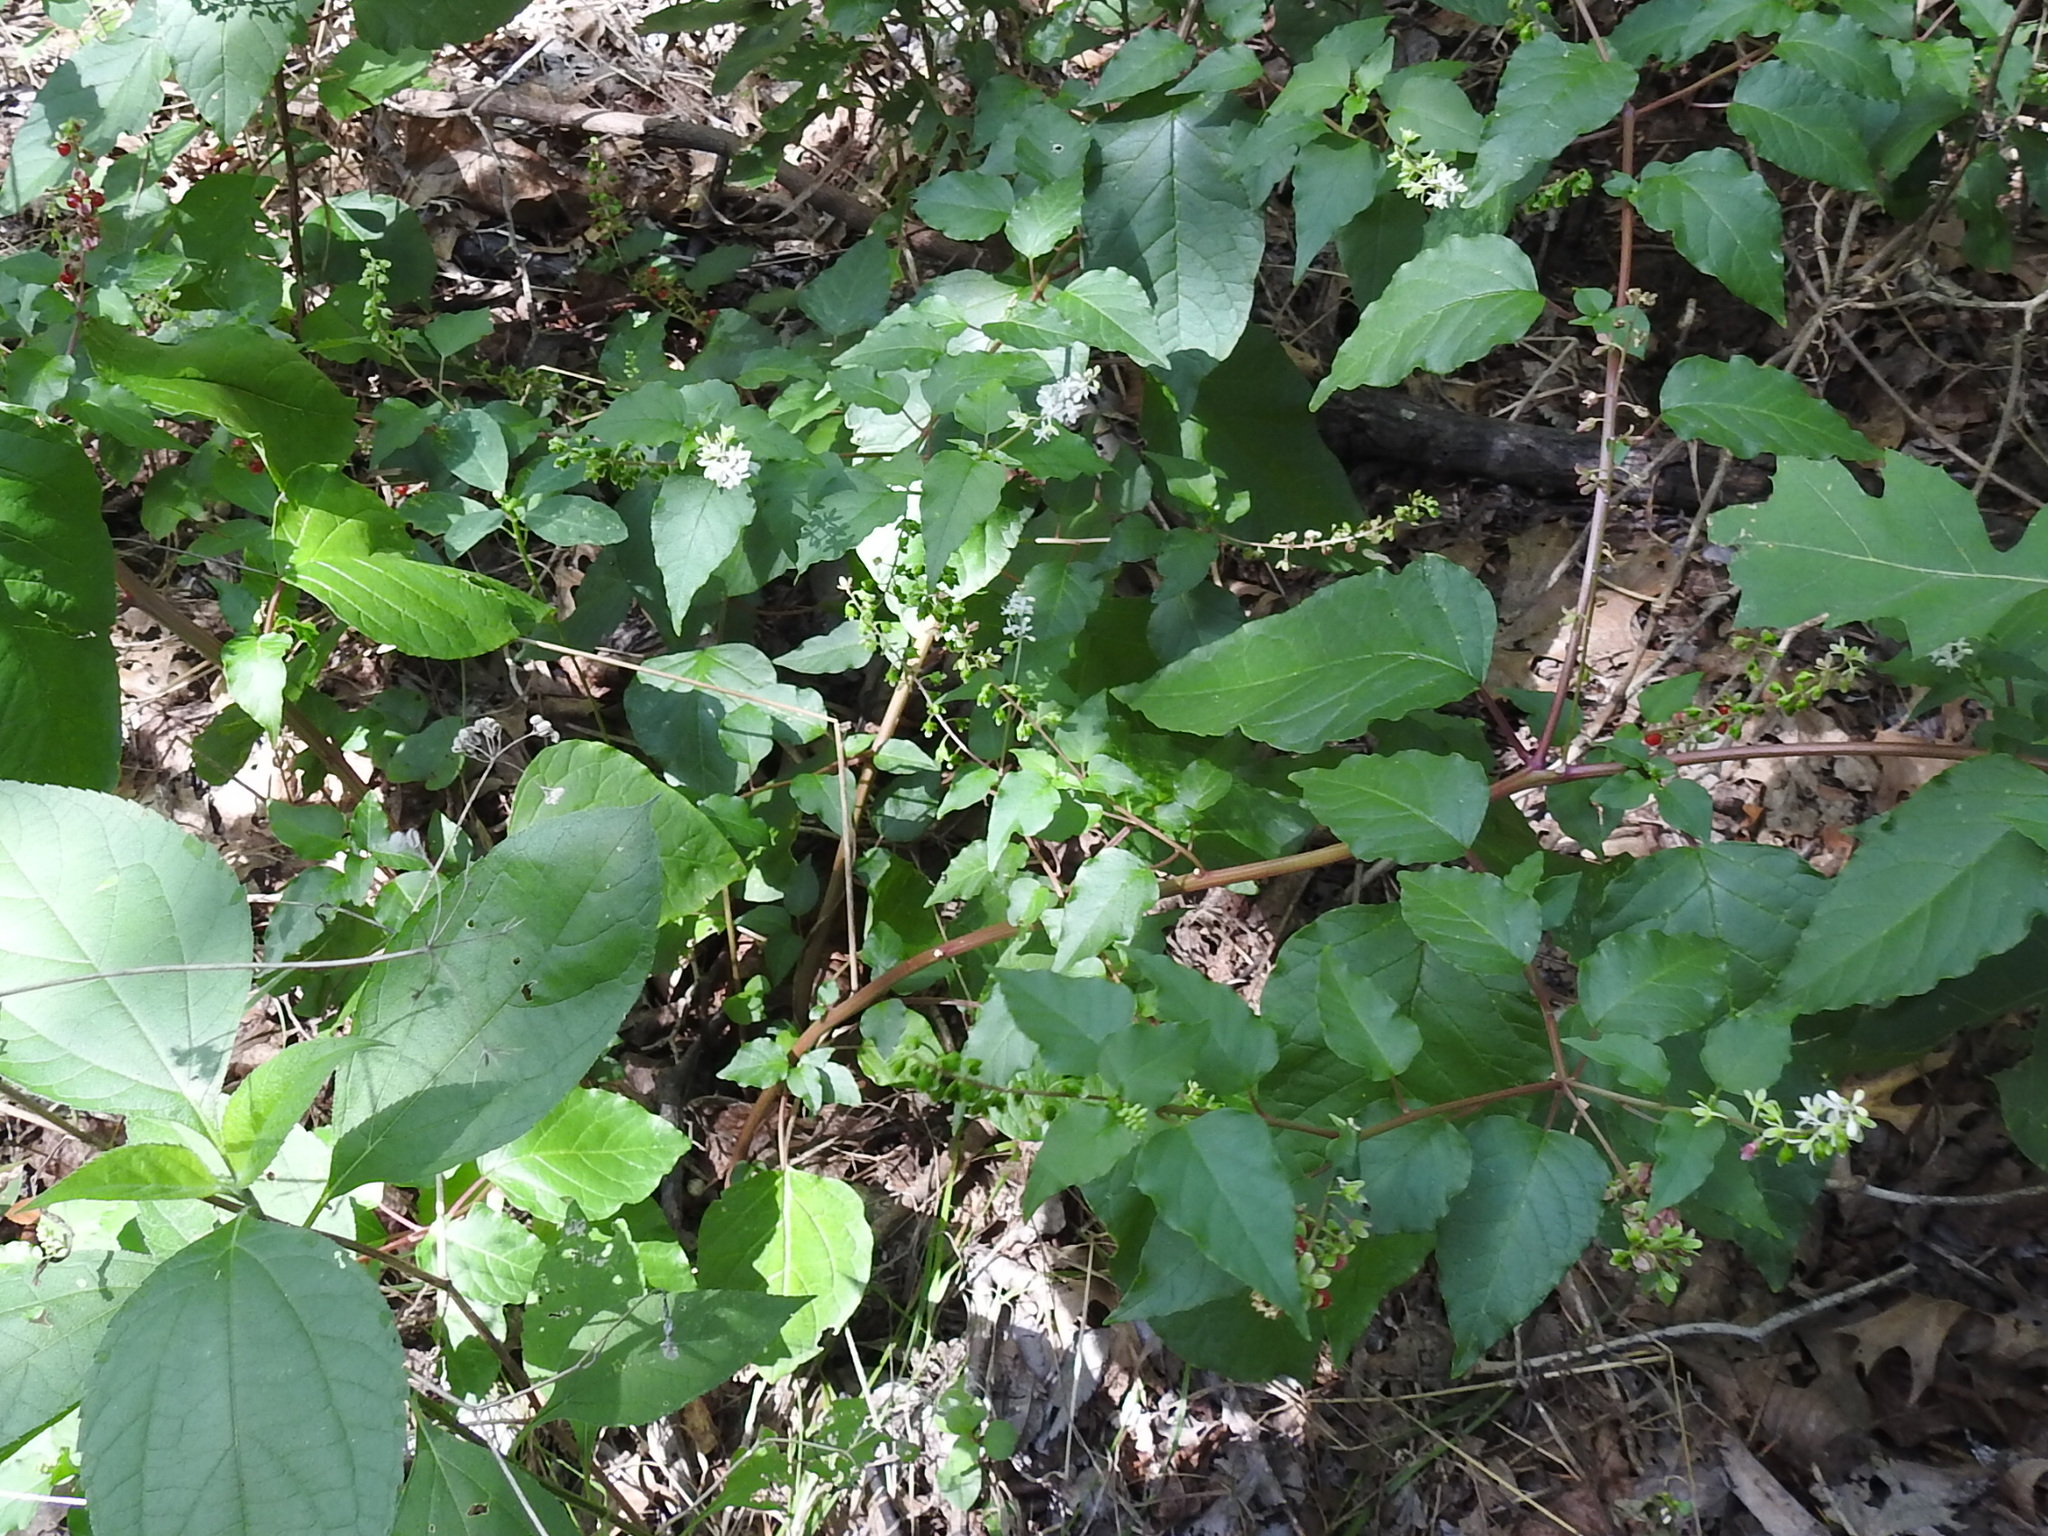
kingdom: Plantae
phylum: Tracheophyta
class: Magnoliopsida
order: Caryophyllales
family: Phytolaccaceae
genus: Rivina
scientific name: Rivina humilis
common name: Rougeplant
